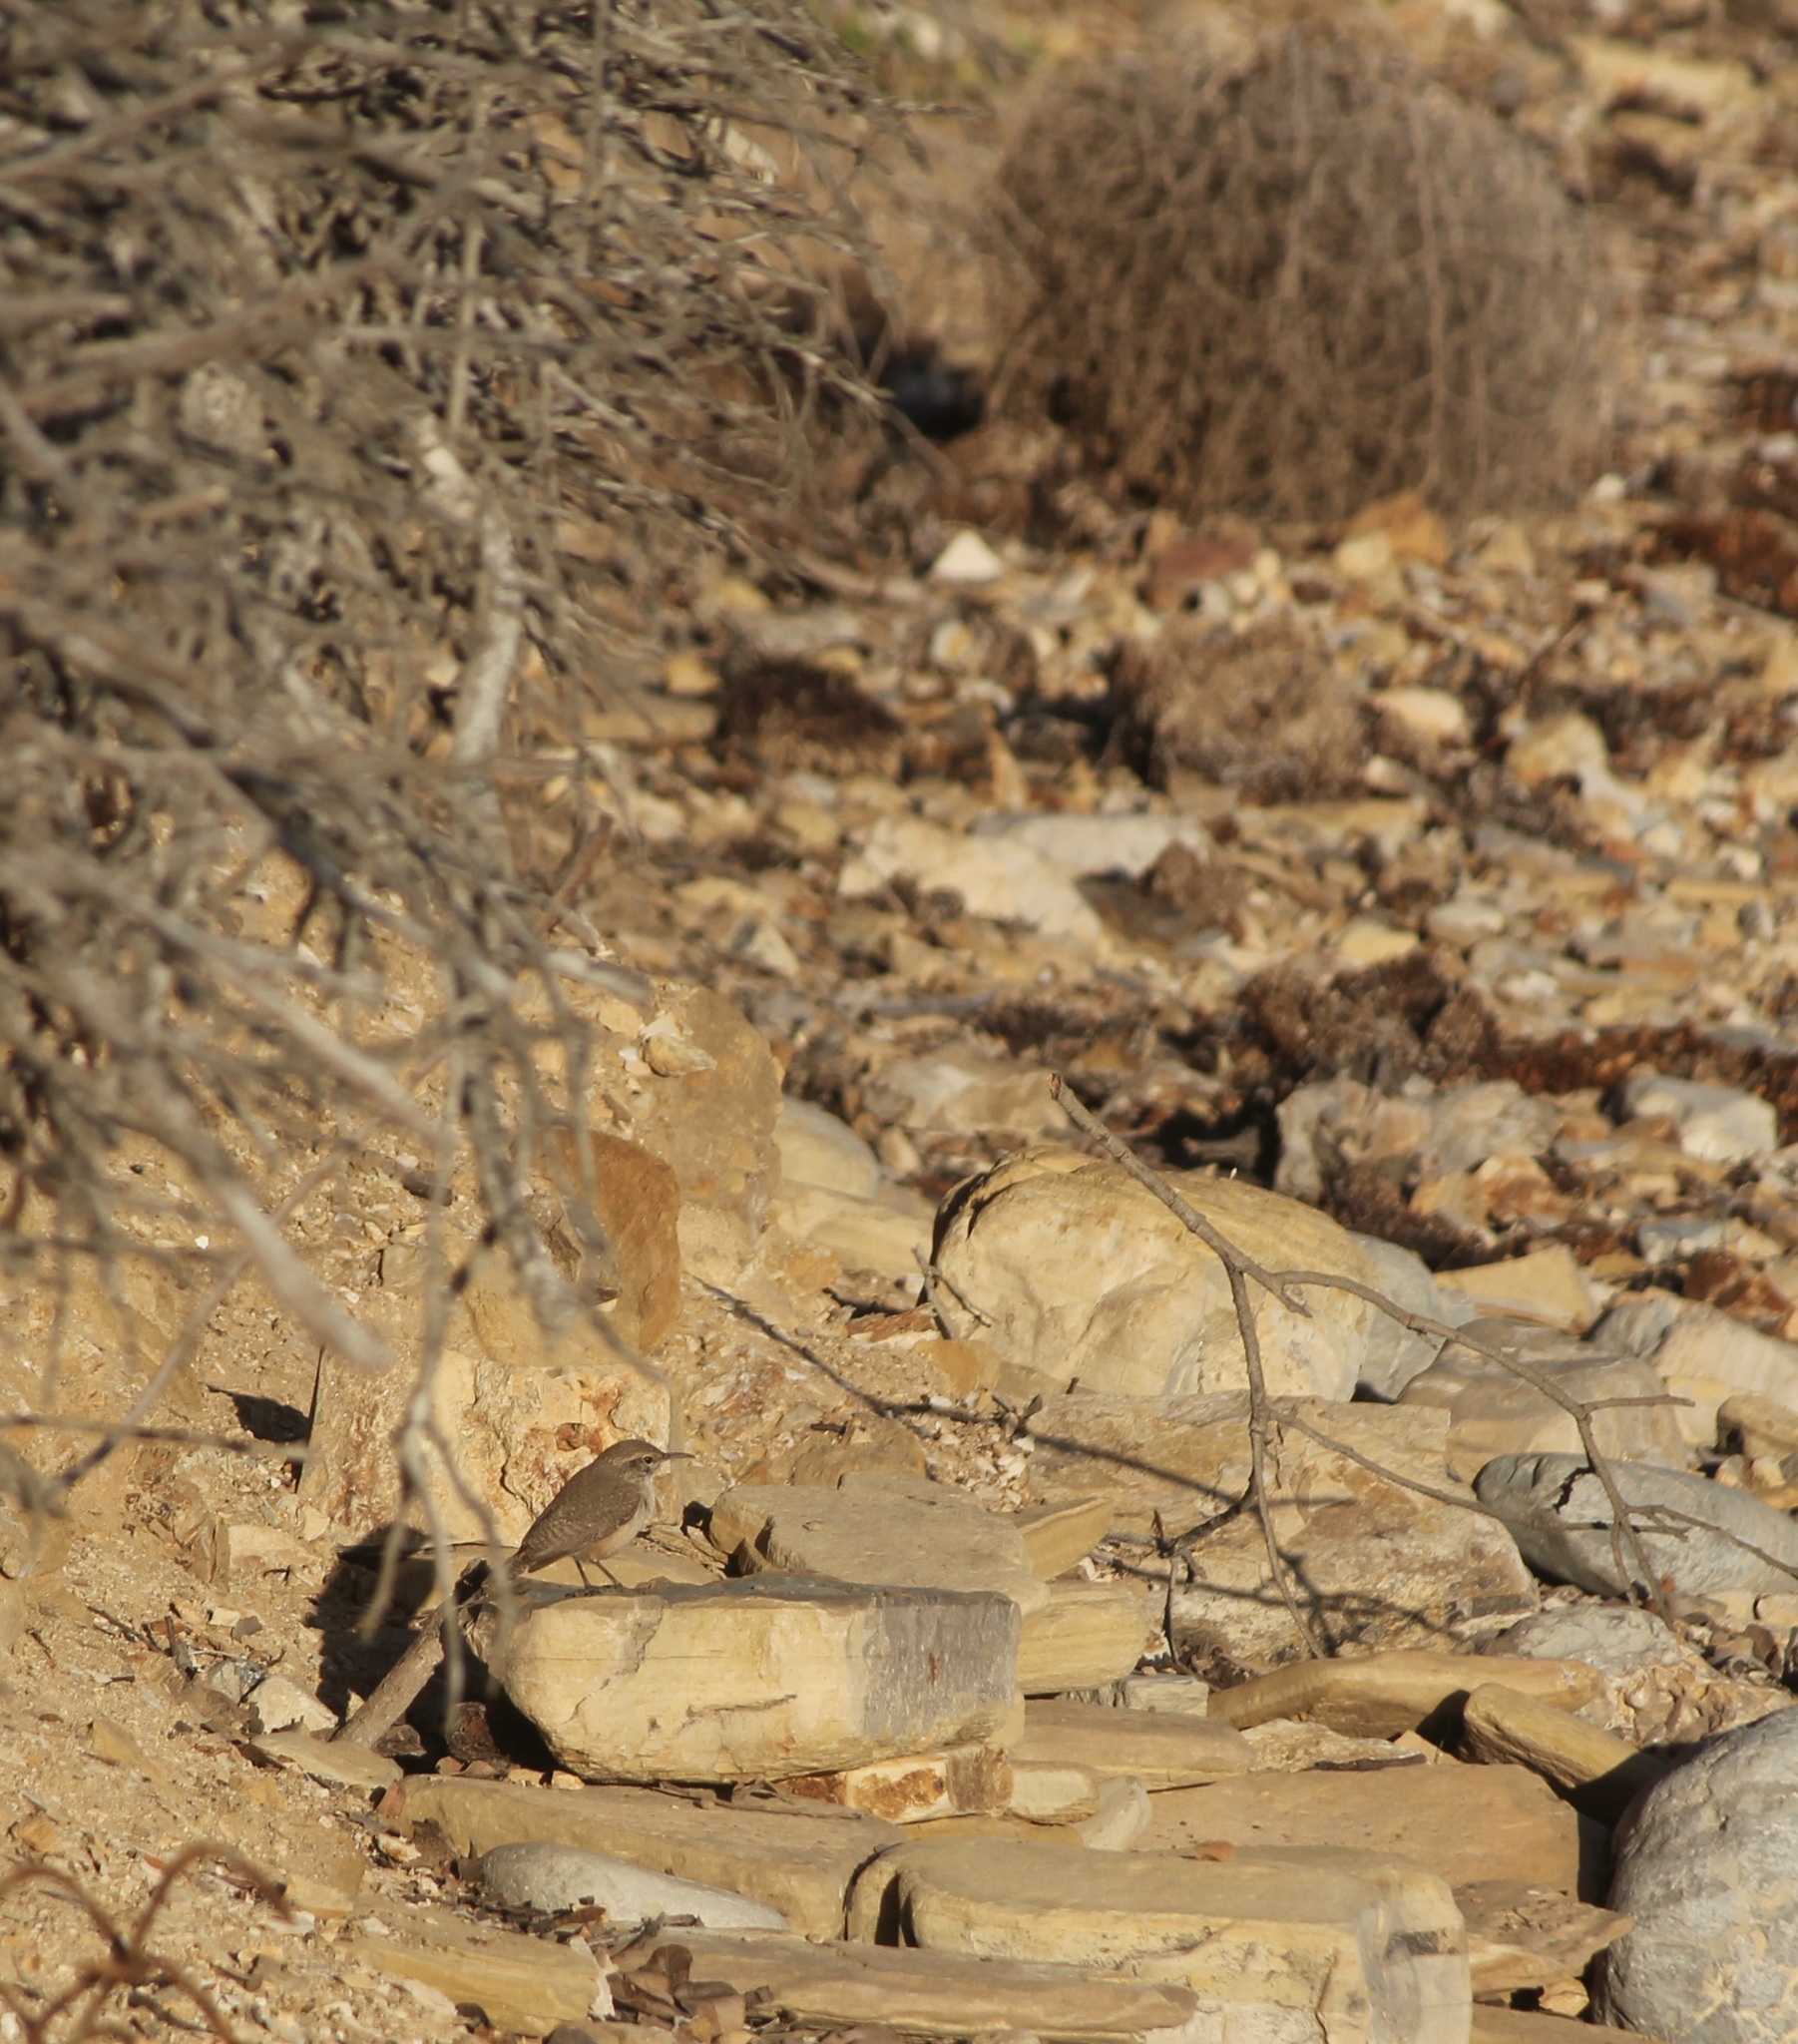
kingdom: Animalia
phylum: Chordata
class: Aves
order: Passeriformes
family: Troglodytidae
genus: Salpinctes
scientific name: Salpinctes obsoletus
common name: Rock wren
